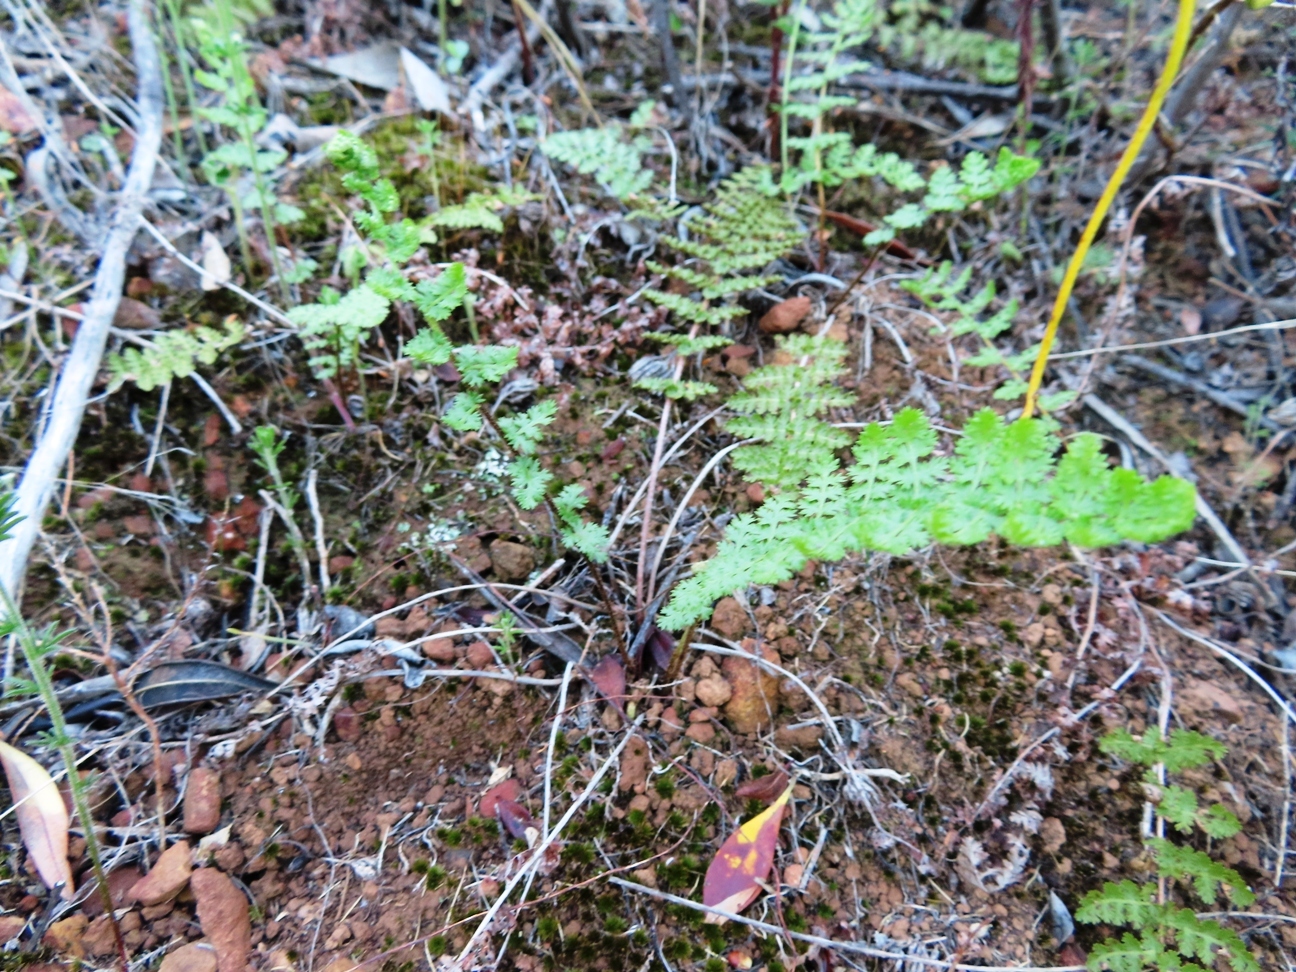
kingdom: Plantae
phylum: Tracheophyta
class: Polypodiopsida
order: Schizaeales
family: Anemiaceae
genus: Anemia
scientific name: Anemia caffrorum
